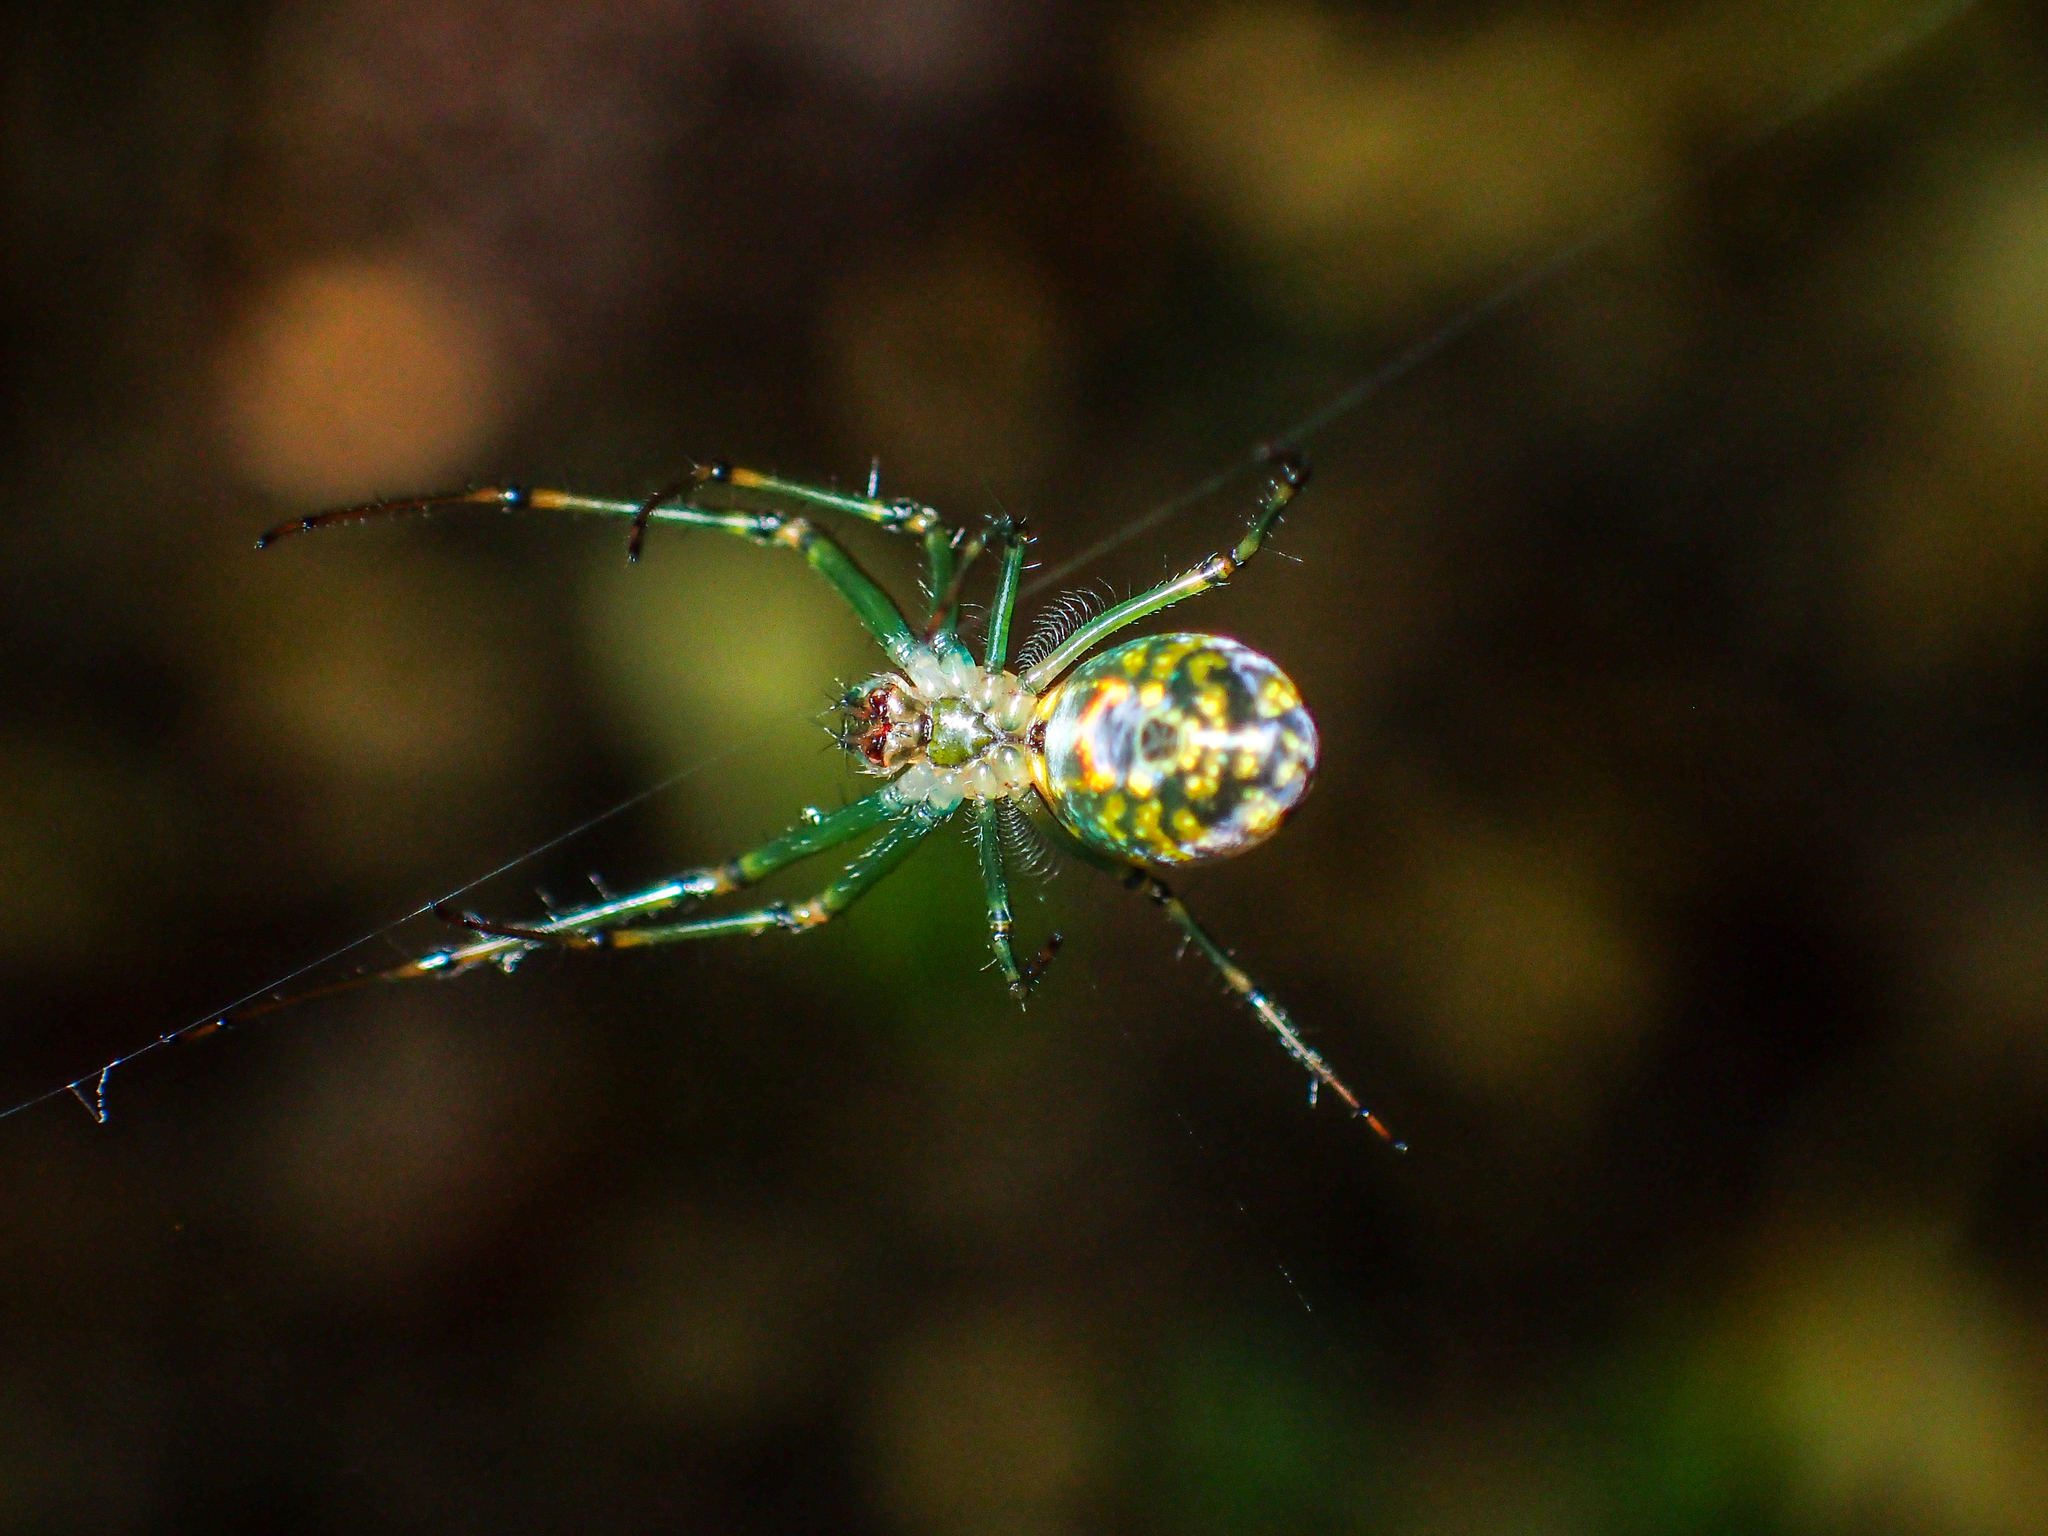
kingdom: Animalia
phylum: Arthropoda
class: Arachnida
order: Araneae
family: Tetragnathidae
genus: Leucauge
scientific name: Leucauge venusta
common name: Longjawed orb weavers
